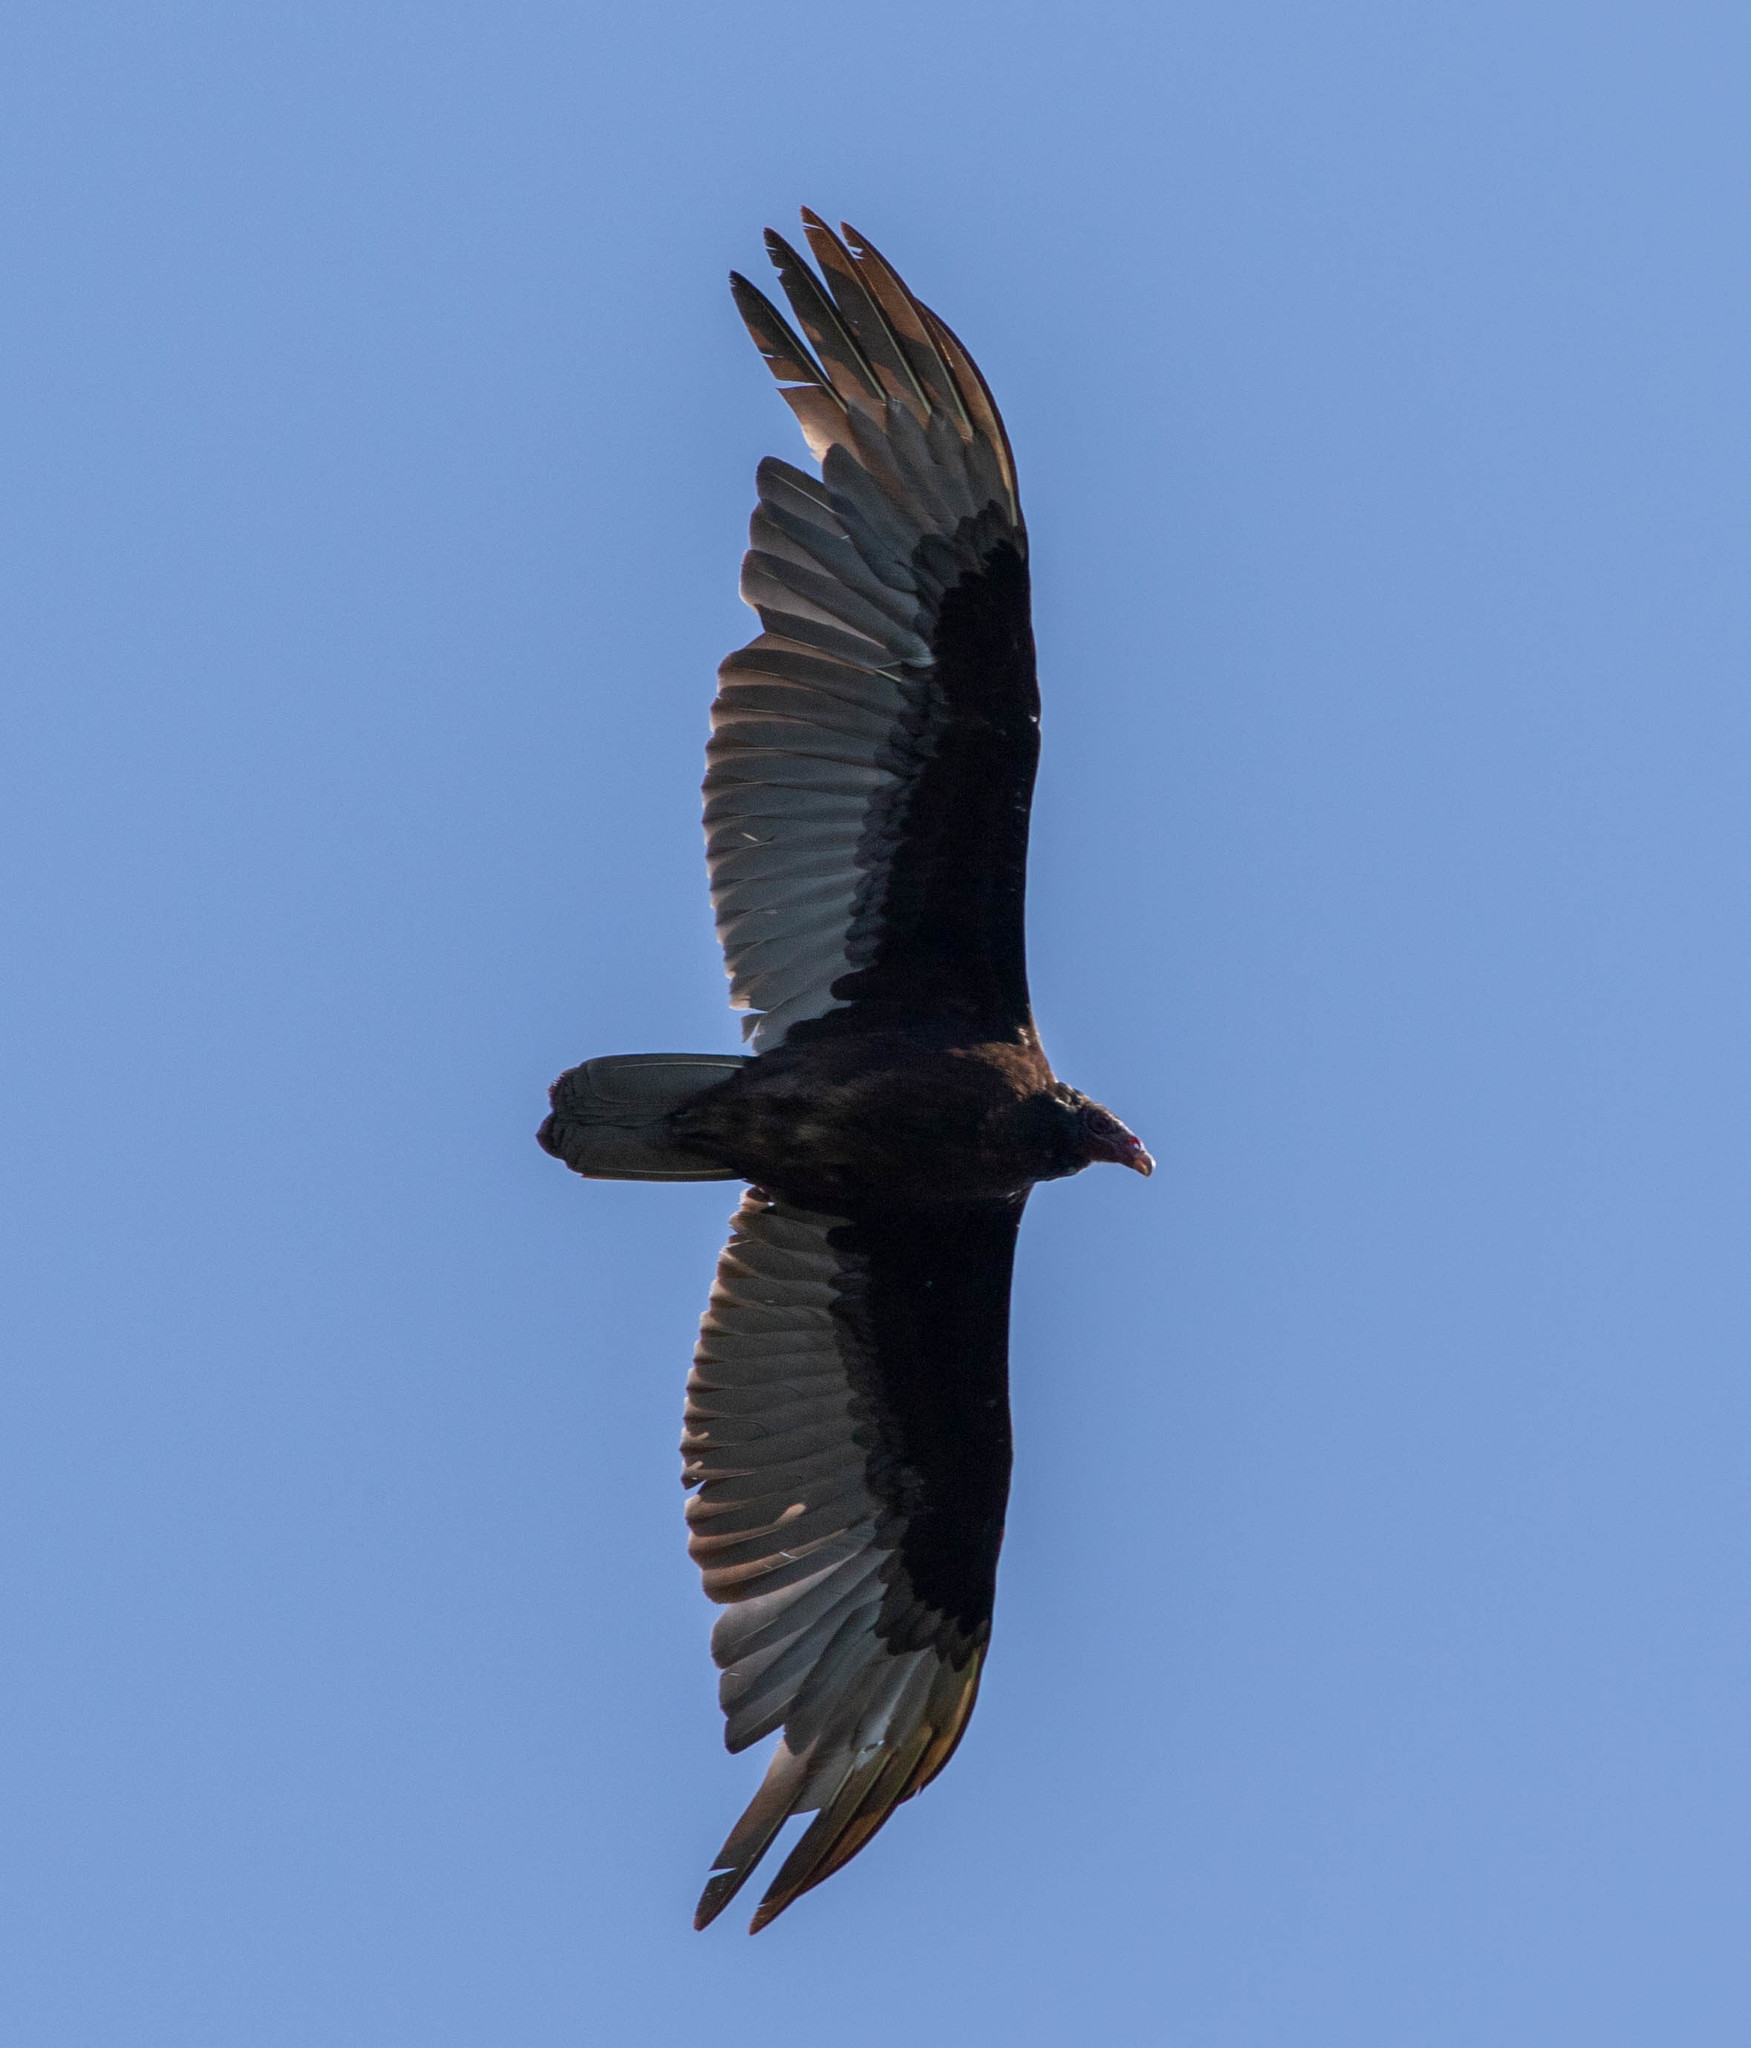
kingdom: Animalia
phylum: Chordata
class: Aves
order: Accipitriformes
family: Cathartidae
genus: Cathartes
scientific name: Cathartes aura
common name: Turkey vulture
